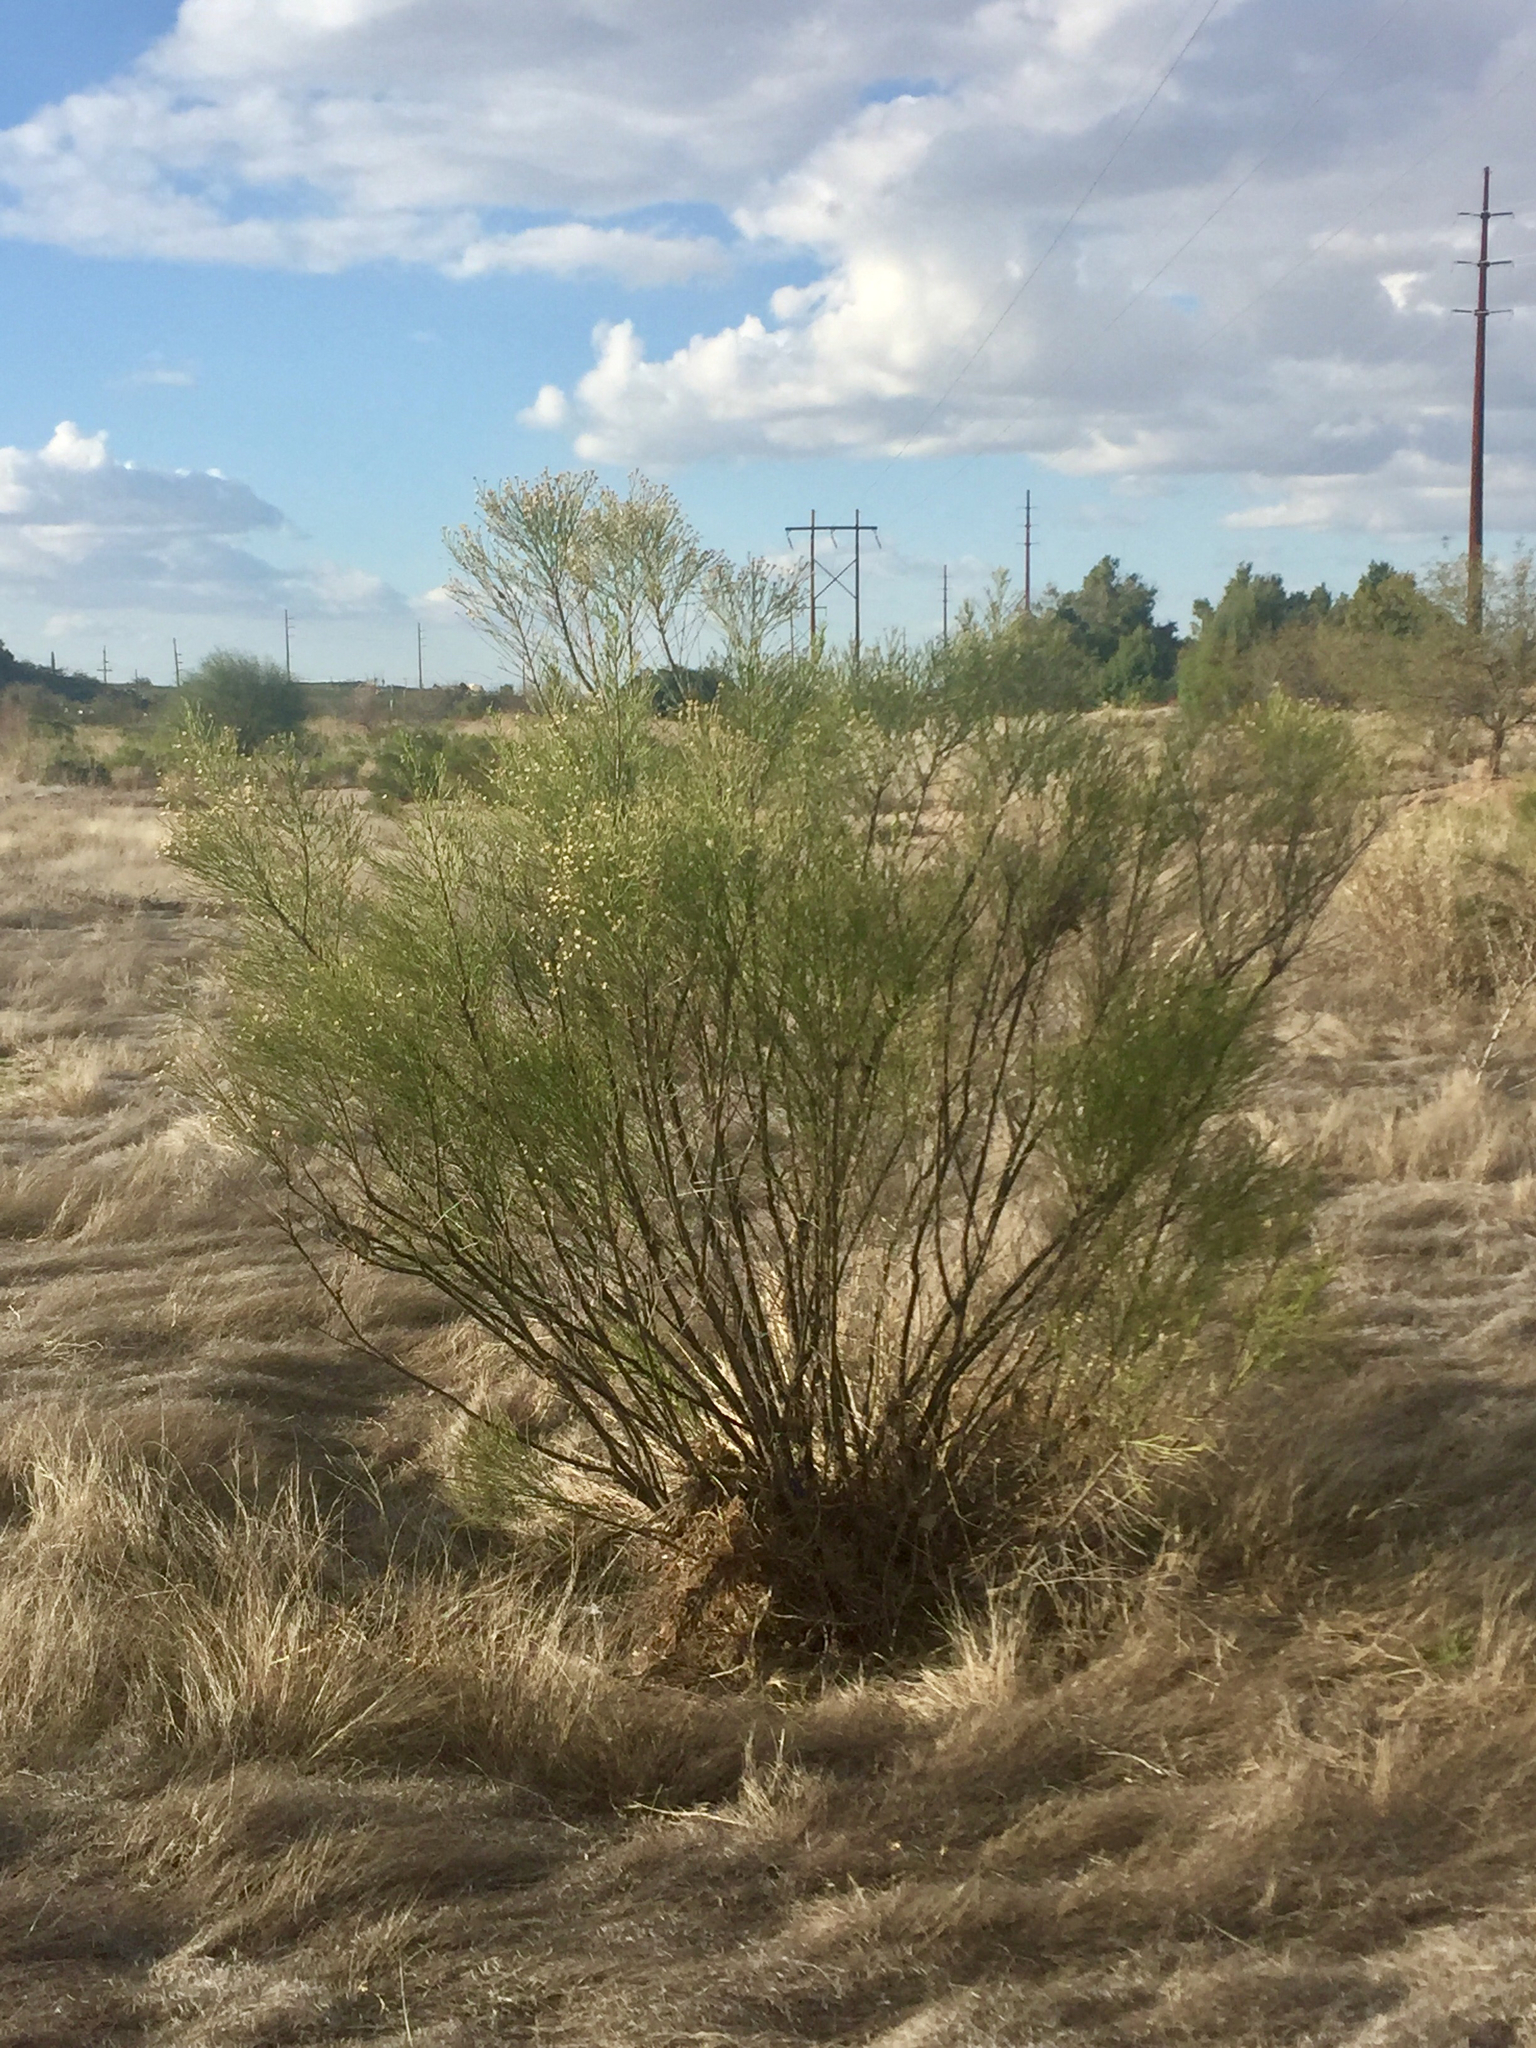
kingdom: Plantae
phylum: Tracheophyta
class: Magnoliopsida
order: Asterales
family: Asteraceae
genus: Baccharis
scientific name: Baccharis sarothroides
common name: Desert-broom
